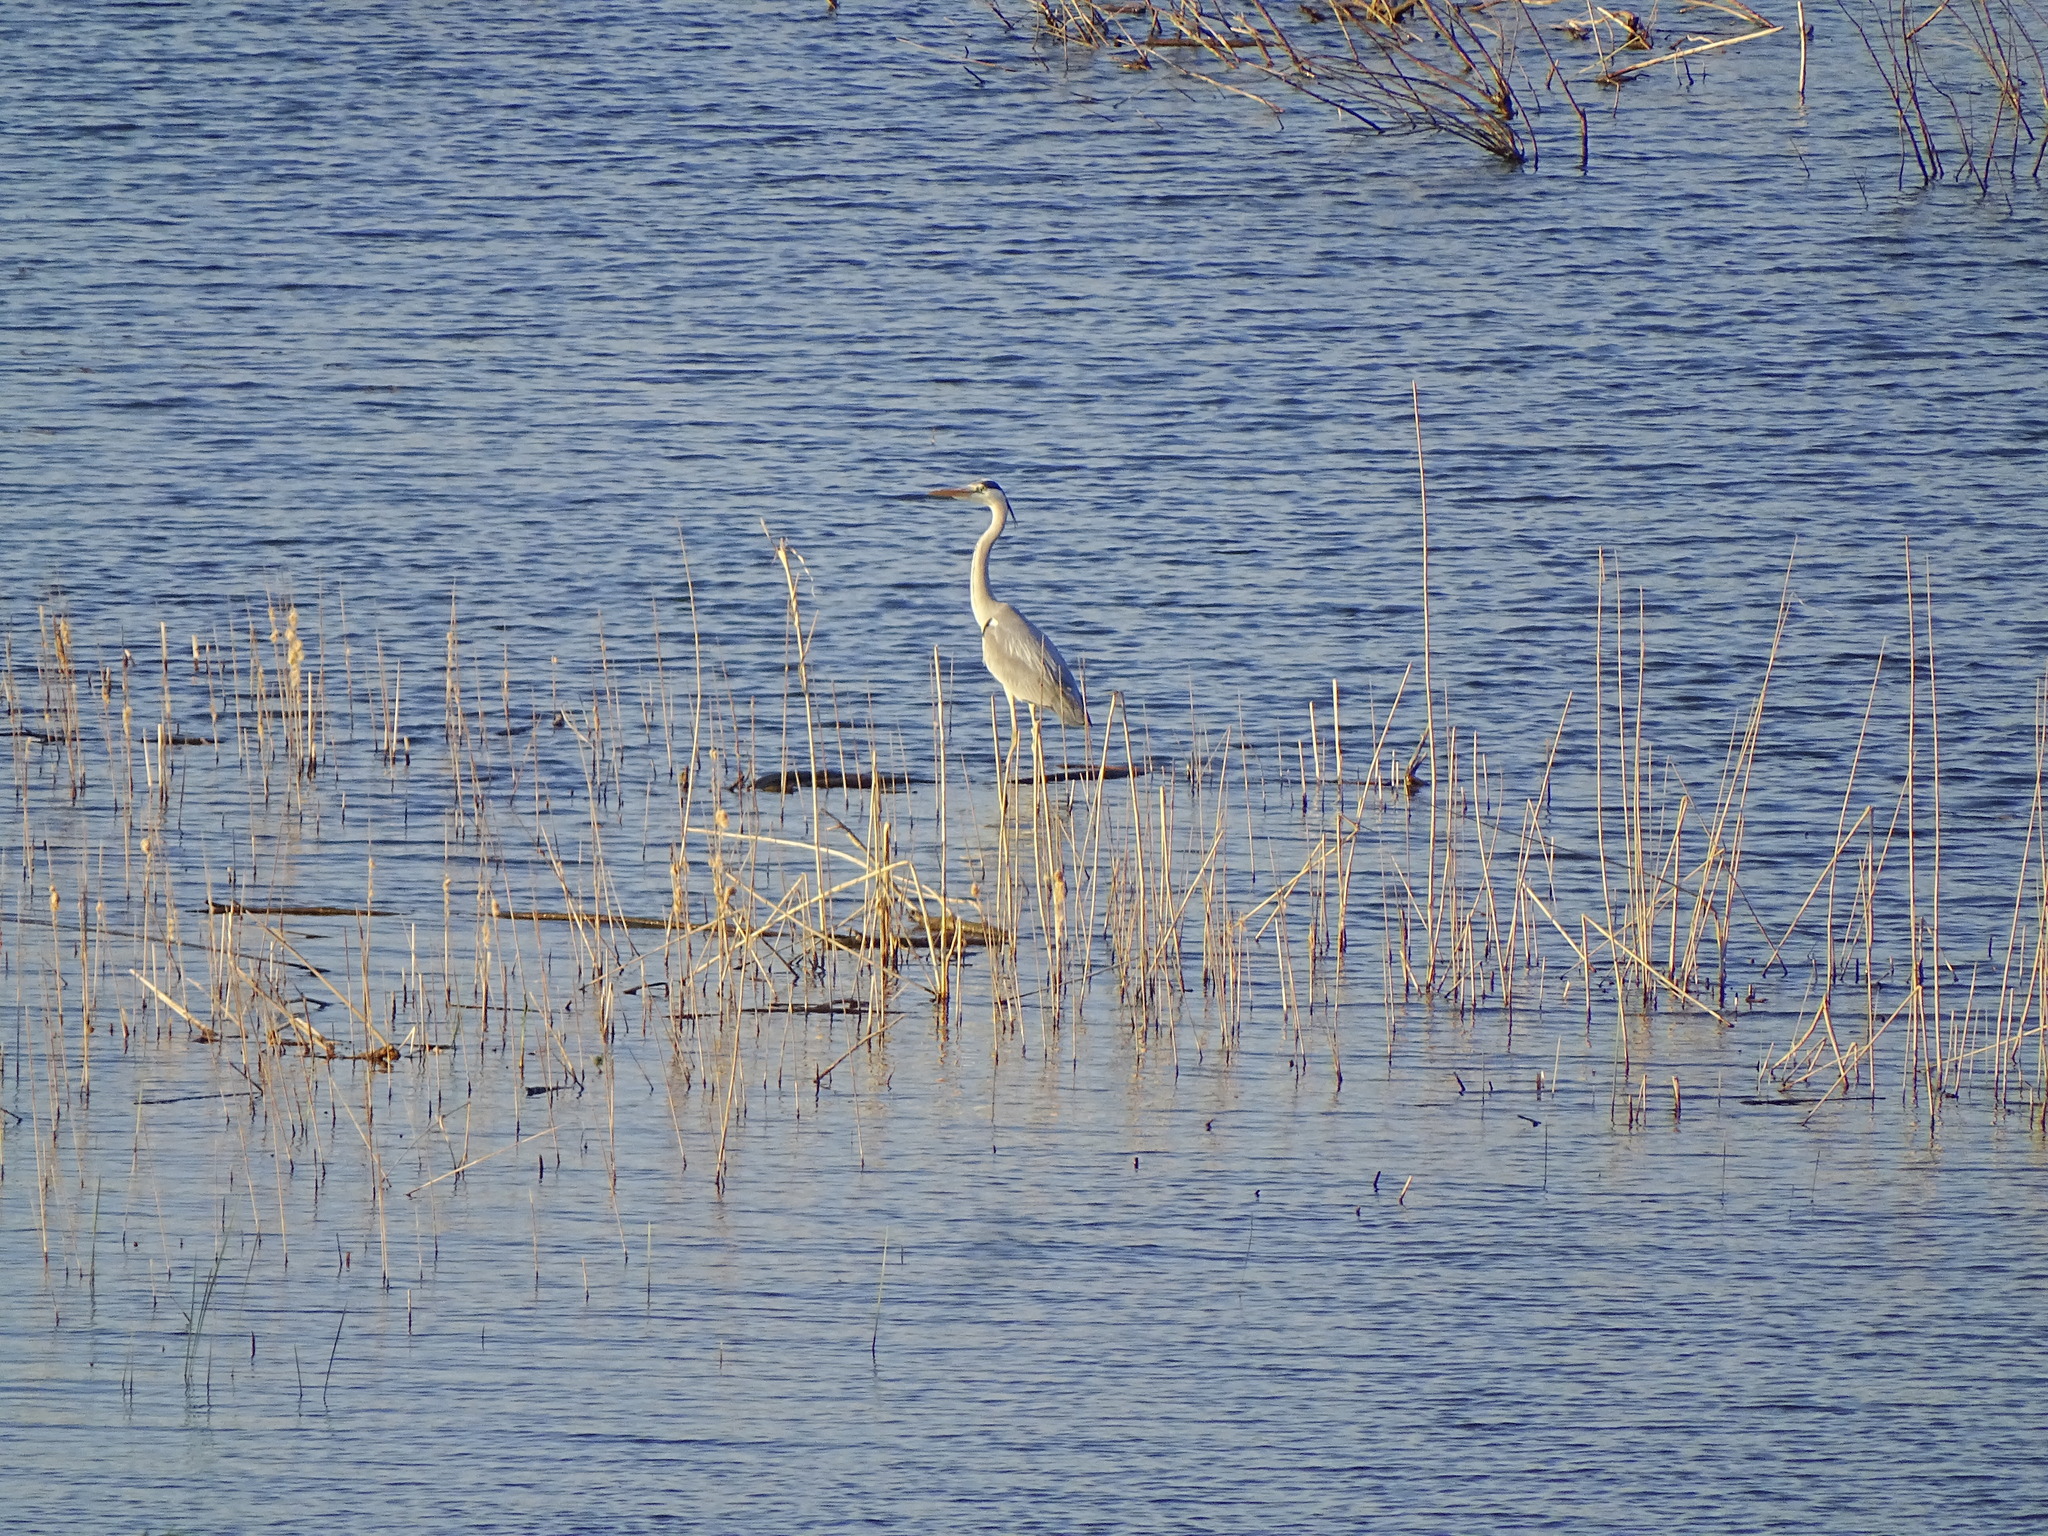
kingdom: Animalia
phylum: Chordata
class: Aves
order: Pelecaniformes
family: Ardeidae
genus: Ardea
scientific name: Ardea cinerea
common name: Grey heron
